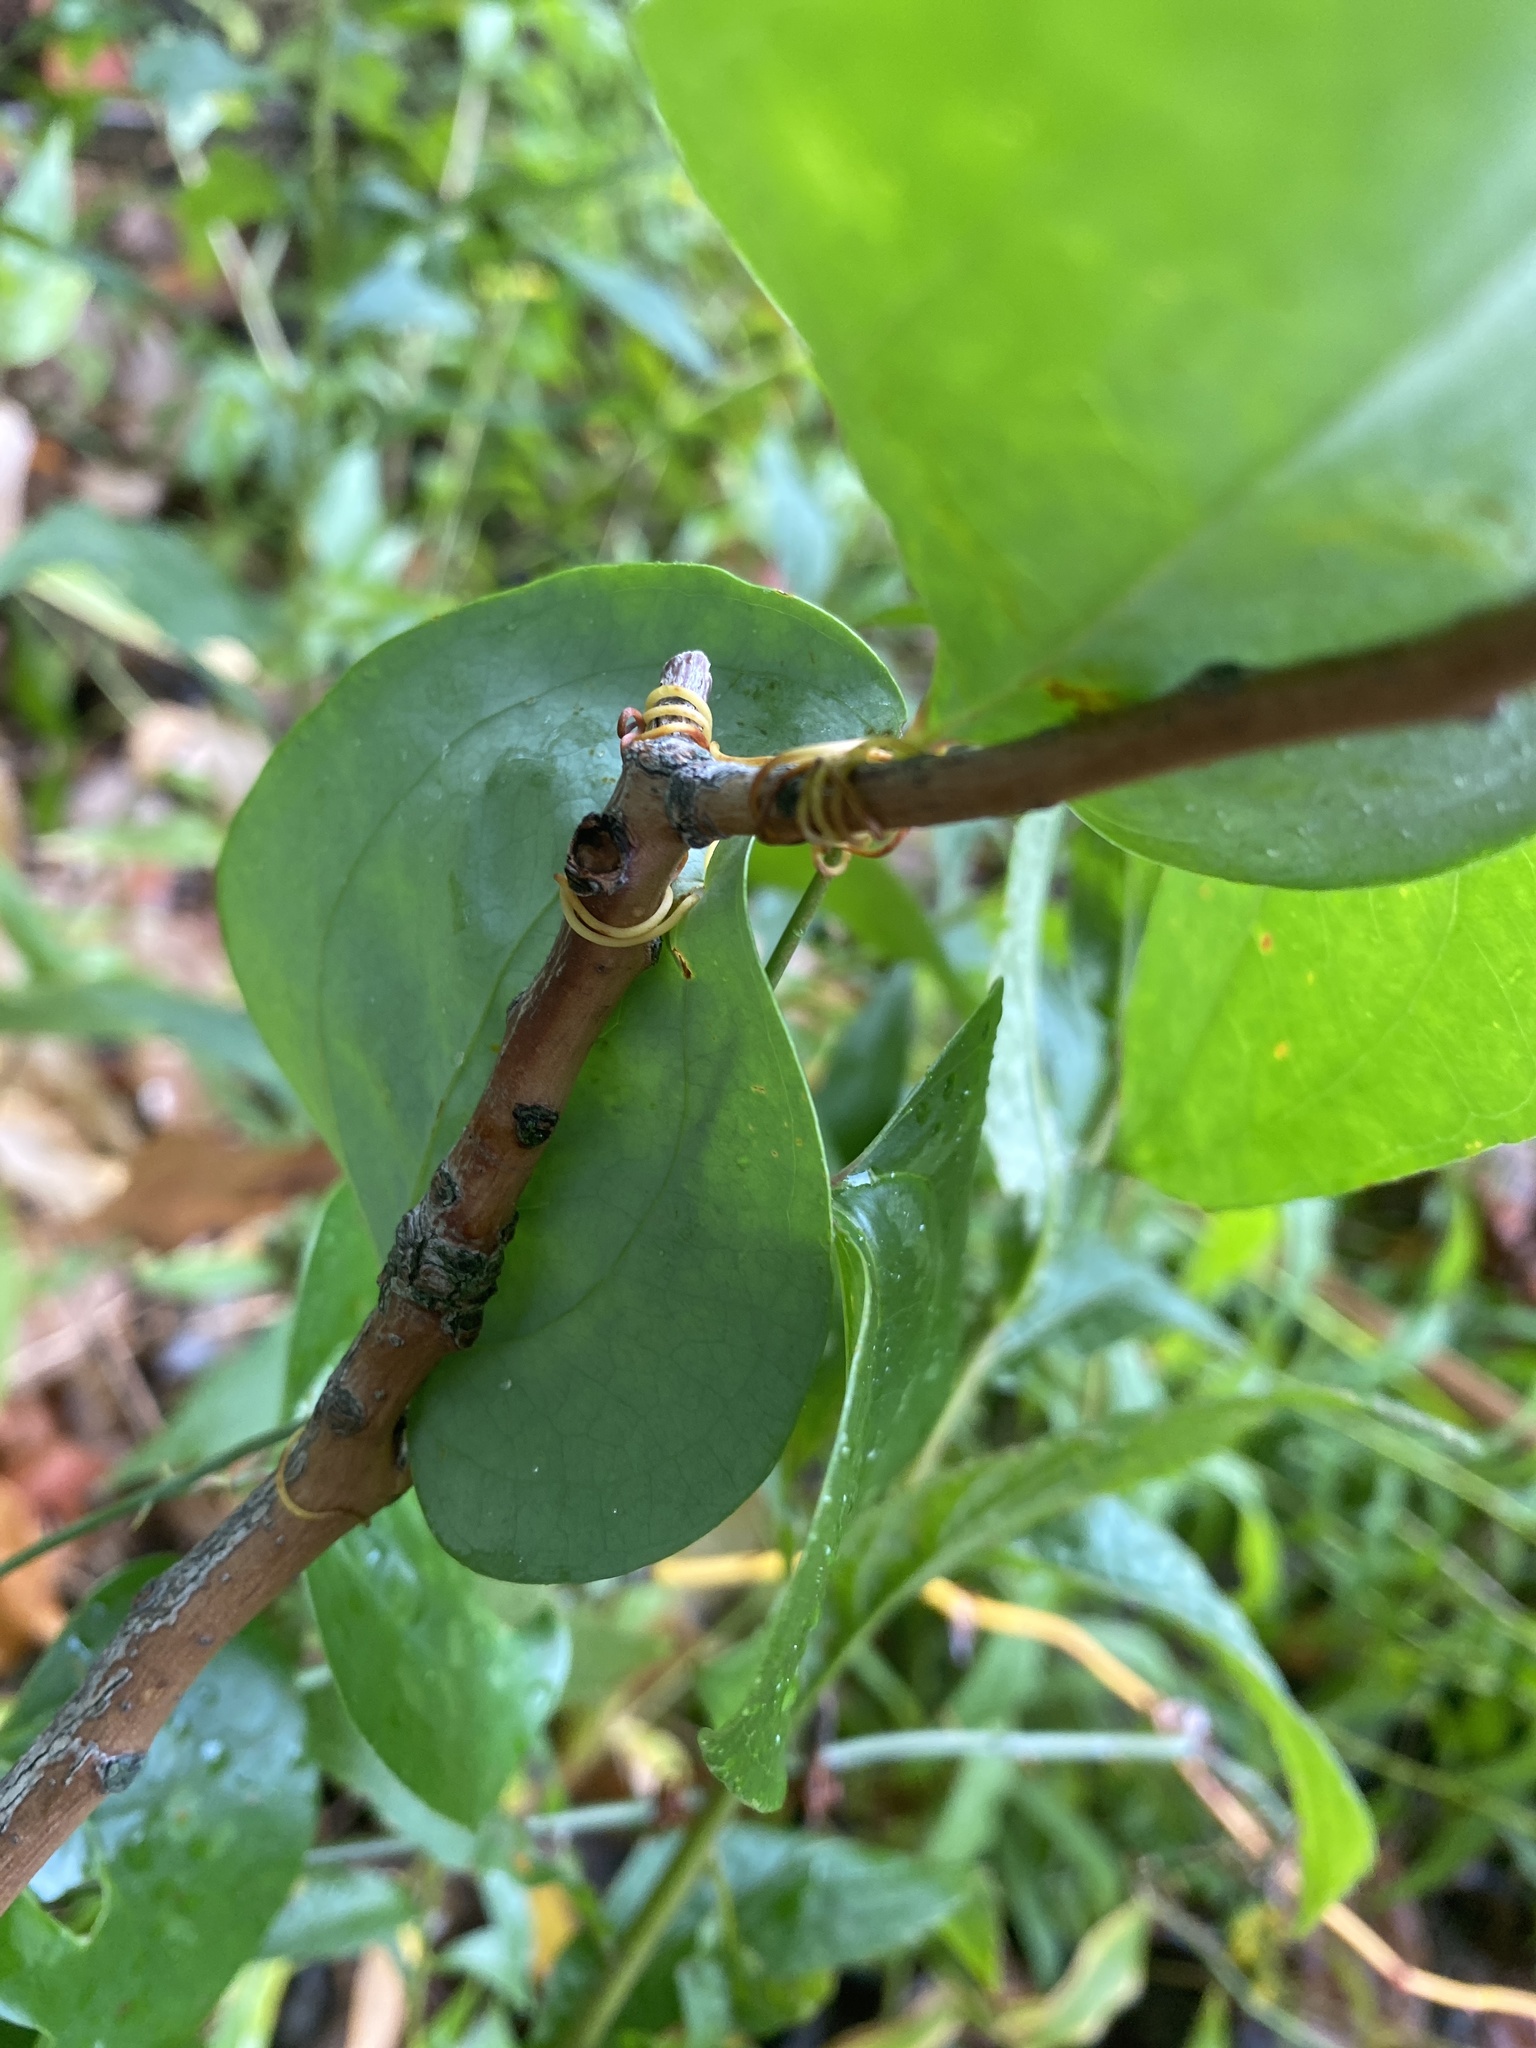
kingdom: Plantae
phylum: Tracheophyta
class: Liliopsida
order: Liliales
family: Smilacaceae
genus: Smilax
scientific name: Smilax glauca
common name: Cat greenbrier
